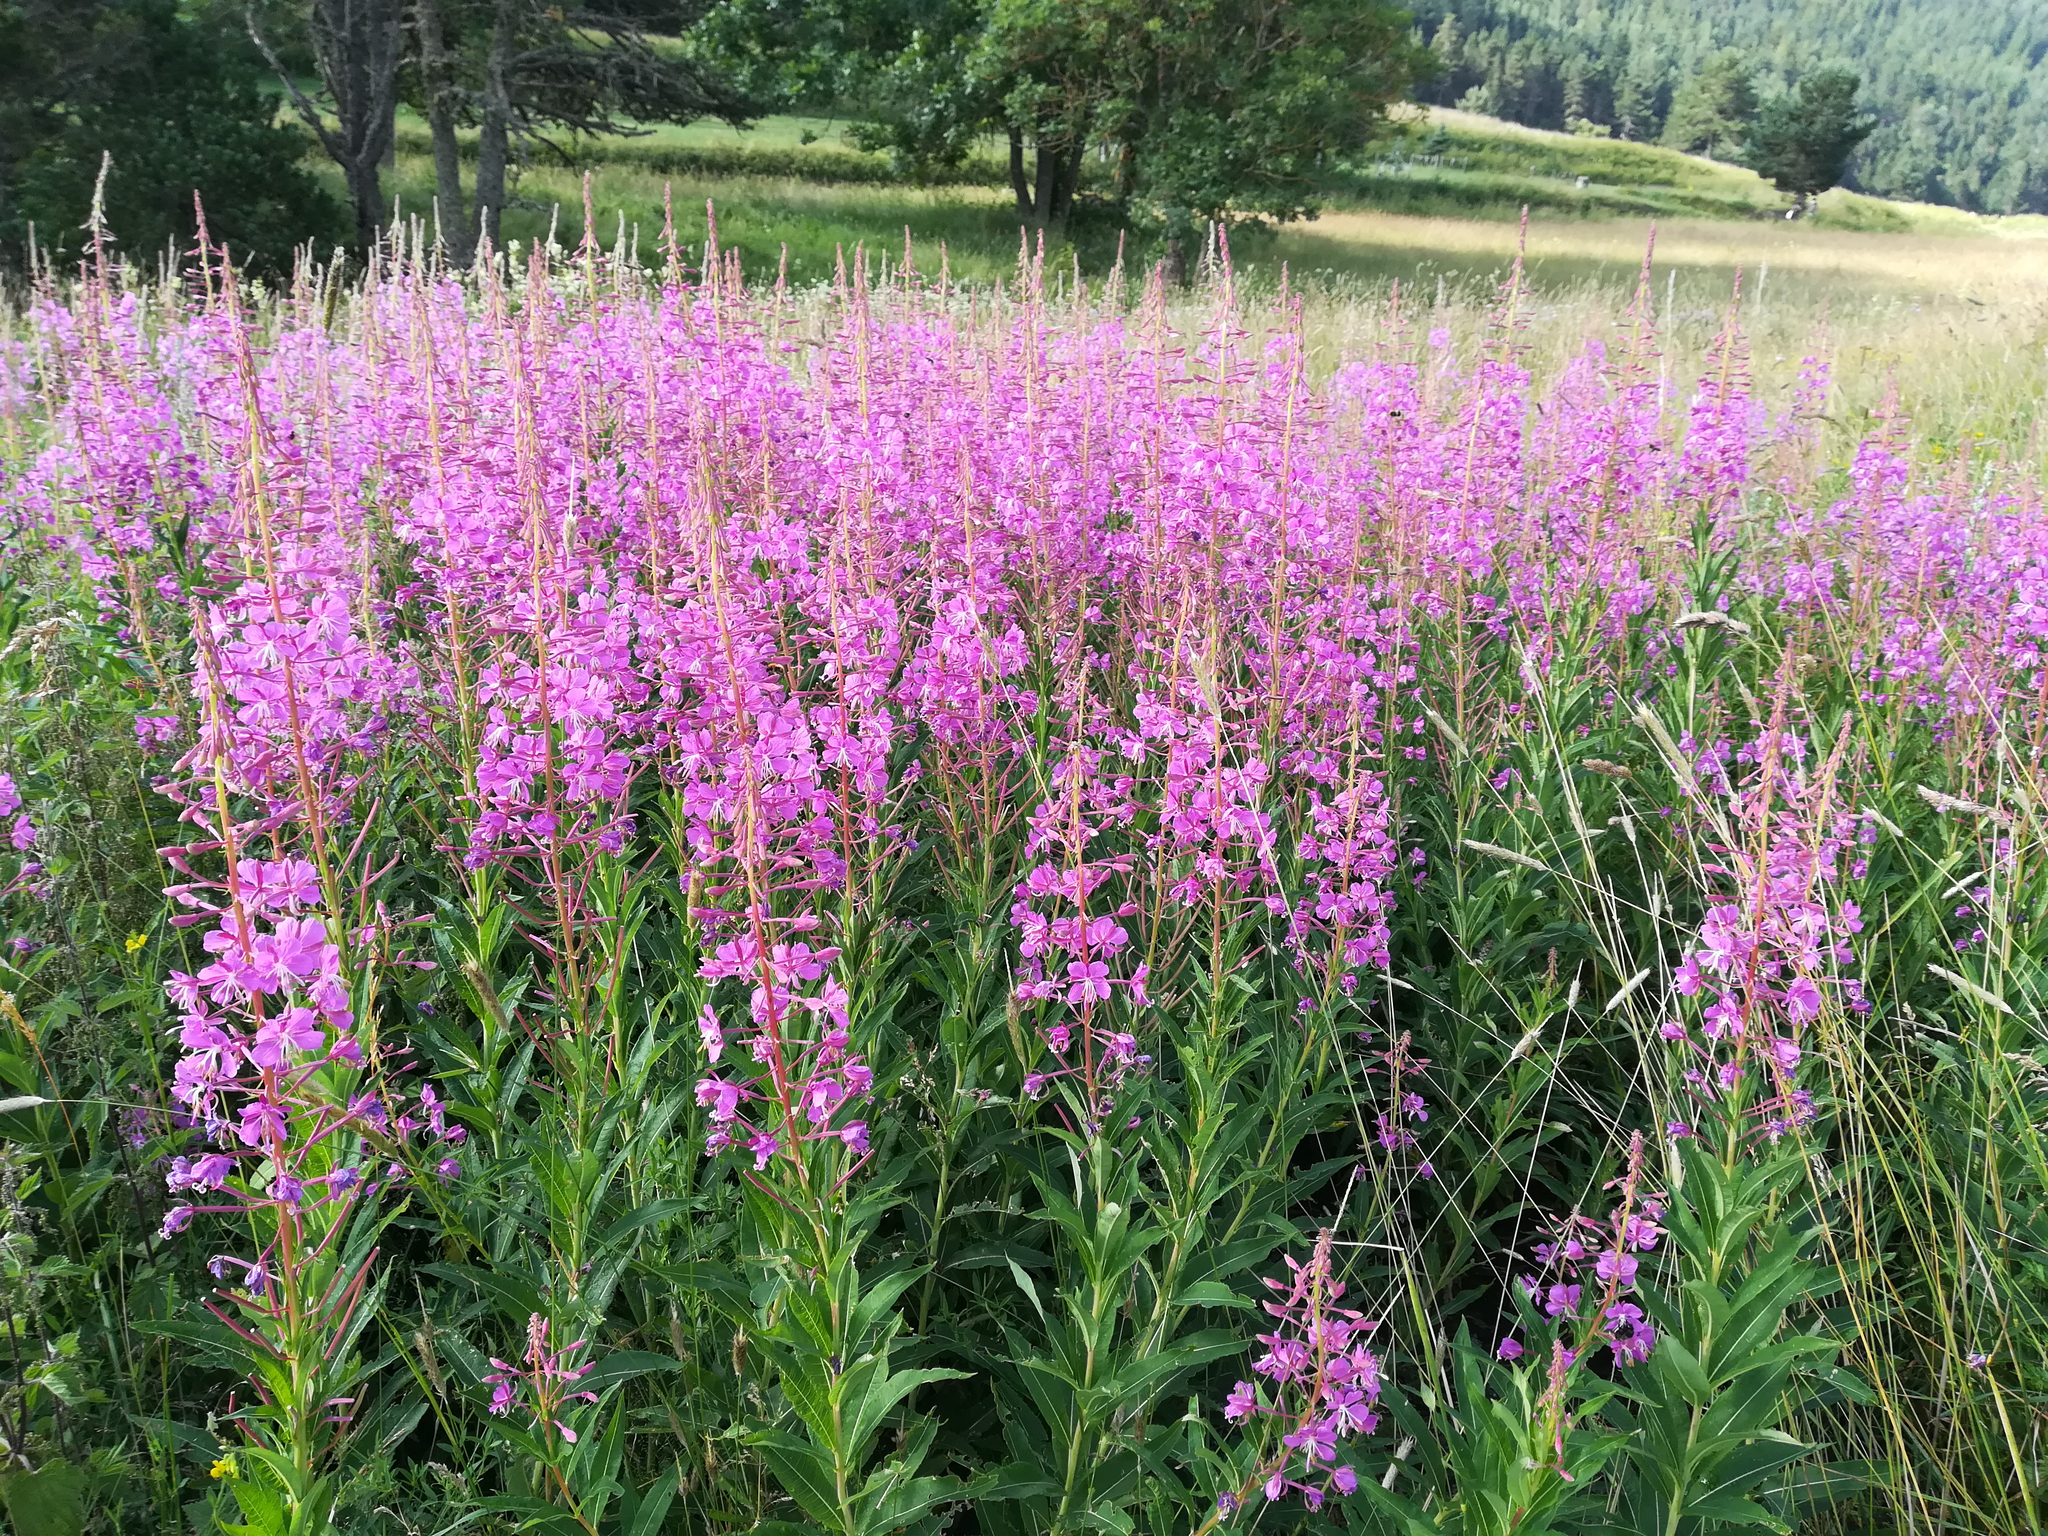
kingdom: Plantae
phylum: Tracheophyta
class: Magnoliopsida
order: Myrtales
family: Onagraceae
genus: Chamaenerion
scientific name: Chamaenerion angustifolium
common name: Fireweed
